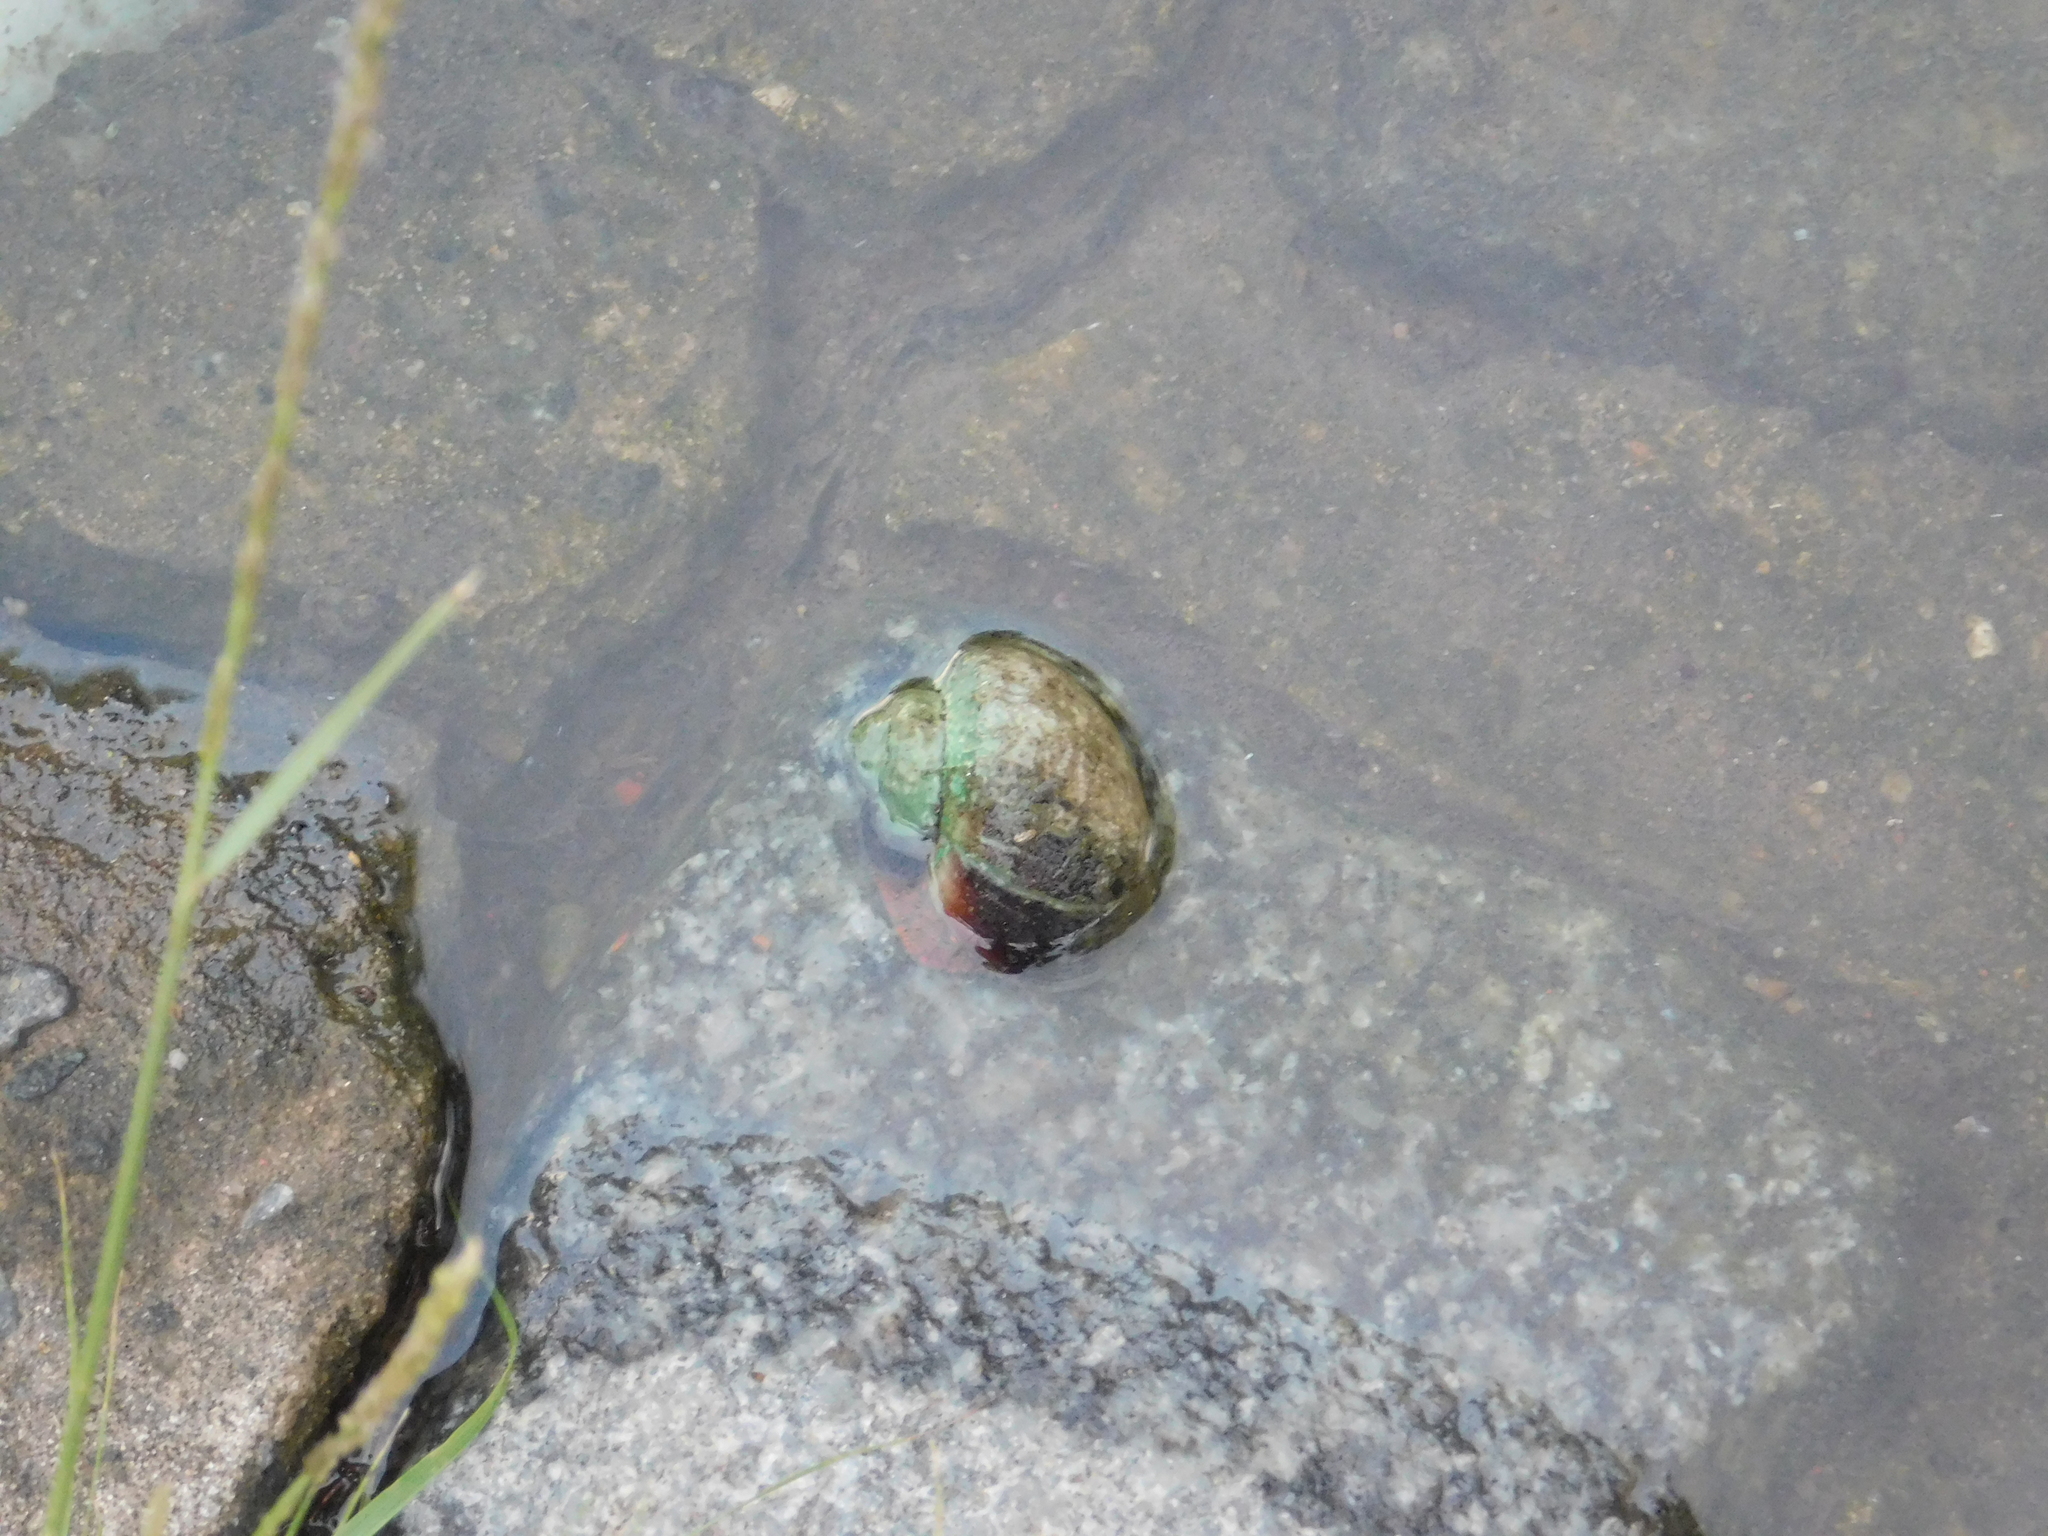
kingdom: Animalia
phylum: Mollusca
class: Gastropoda
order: Architaenioglossa
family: Ampullariidae
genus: Pomacea
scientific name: Pomacea scalaris
